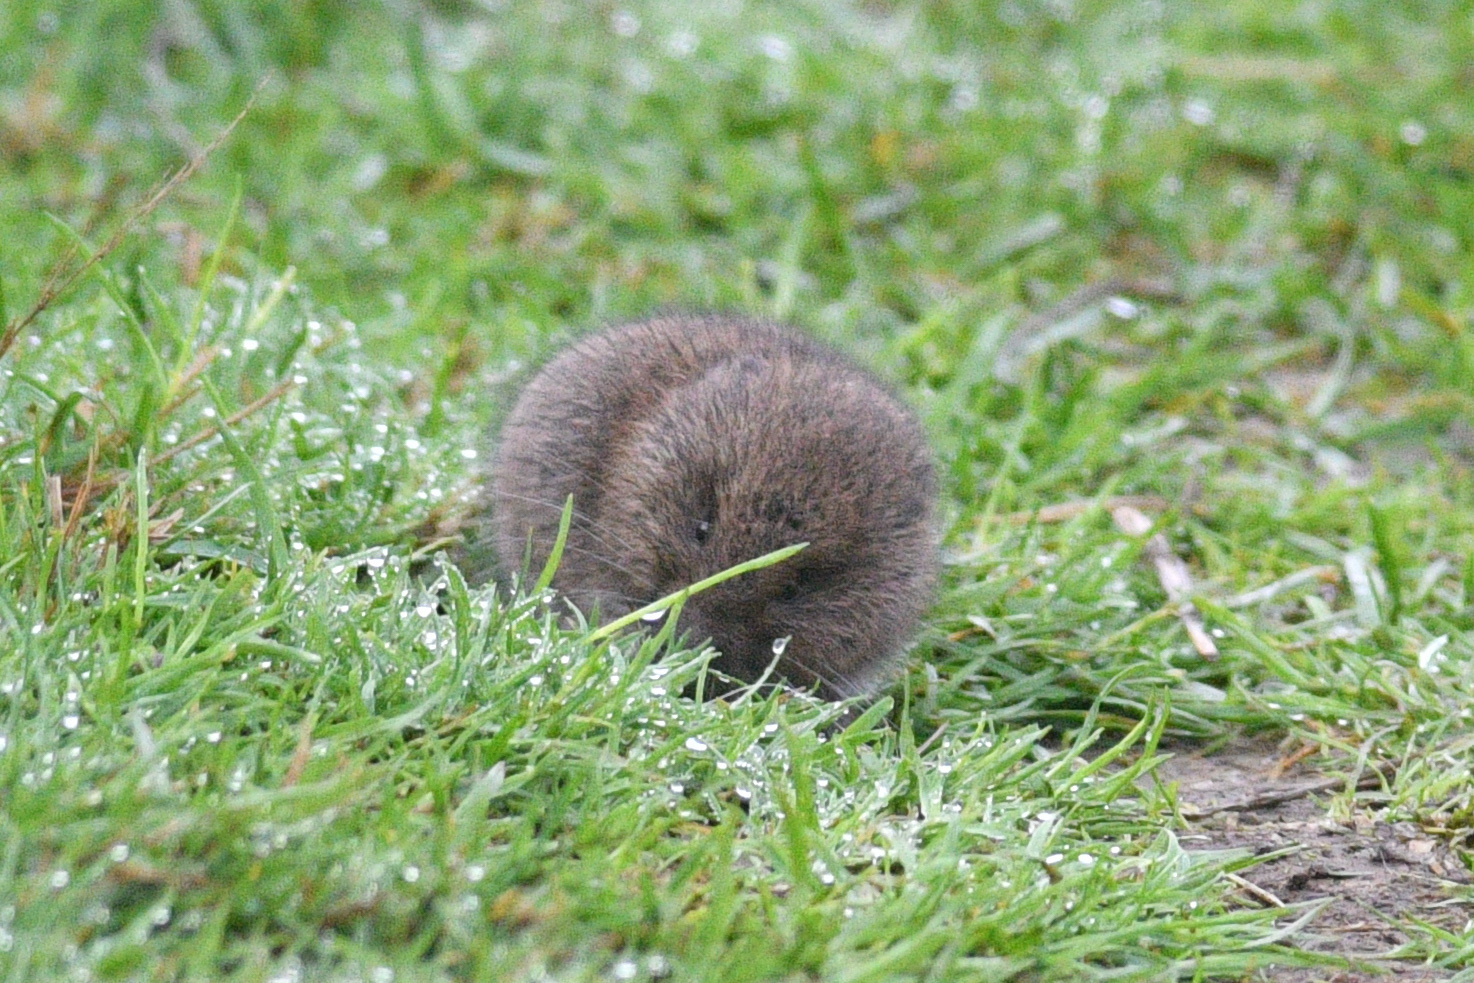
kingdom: Animalia
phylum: Chordata
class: Mammalia
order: Rodentia
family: Cricetidae
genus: Microtus
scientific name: Microtus townsendii
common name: Townsend's vole
